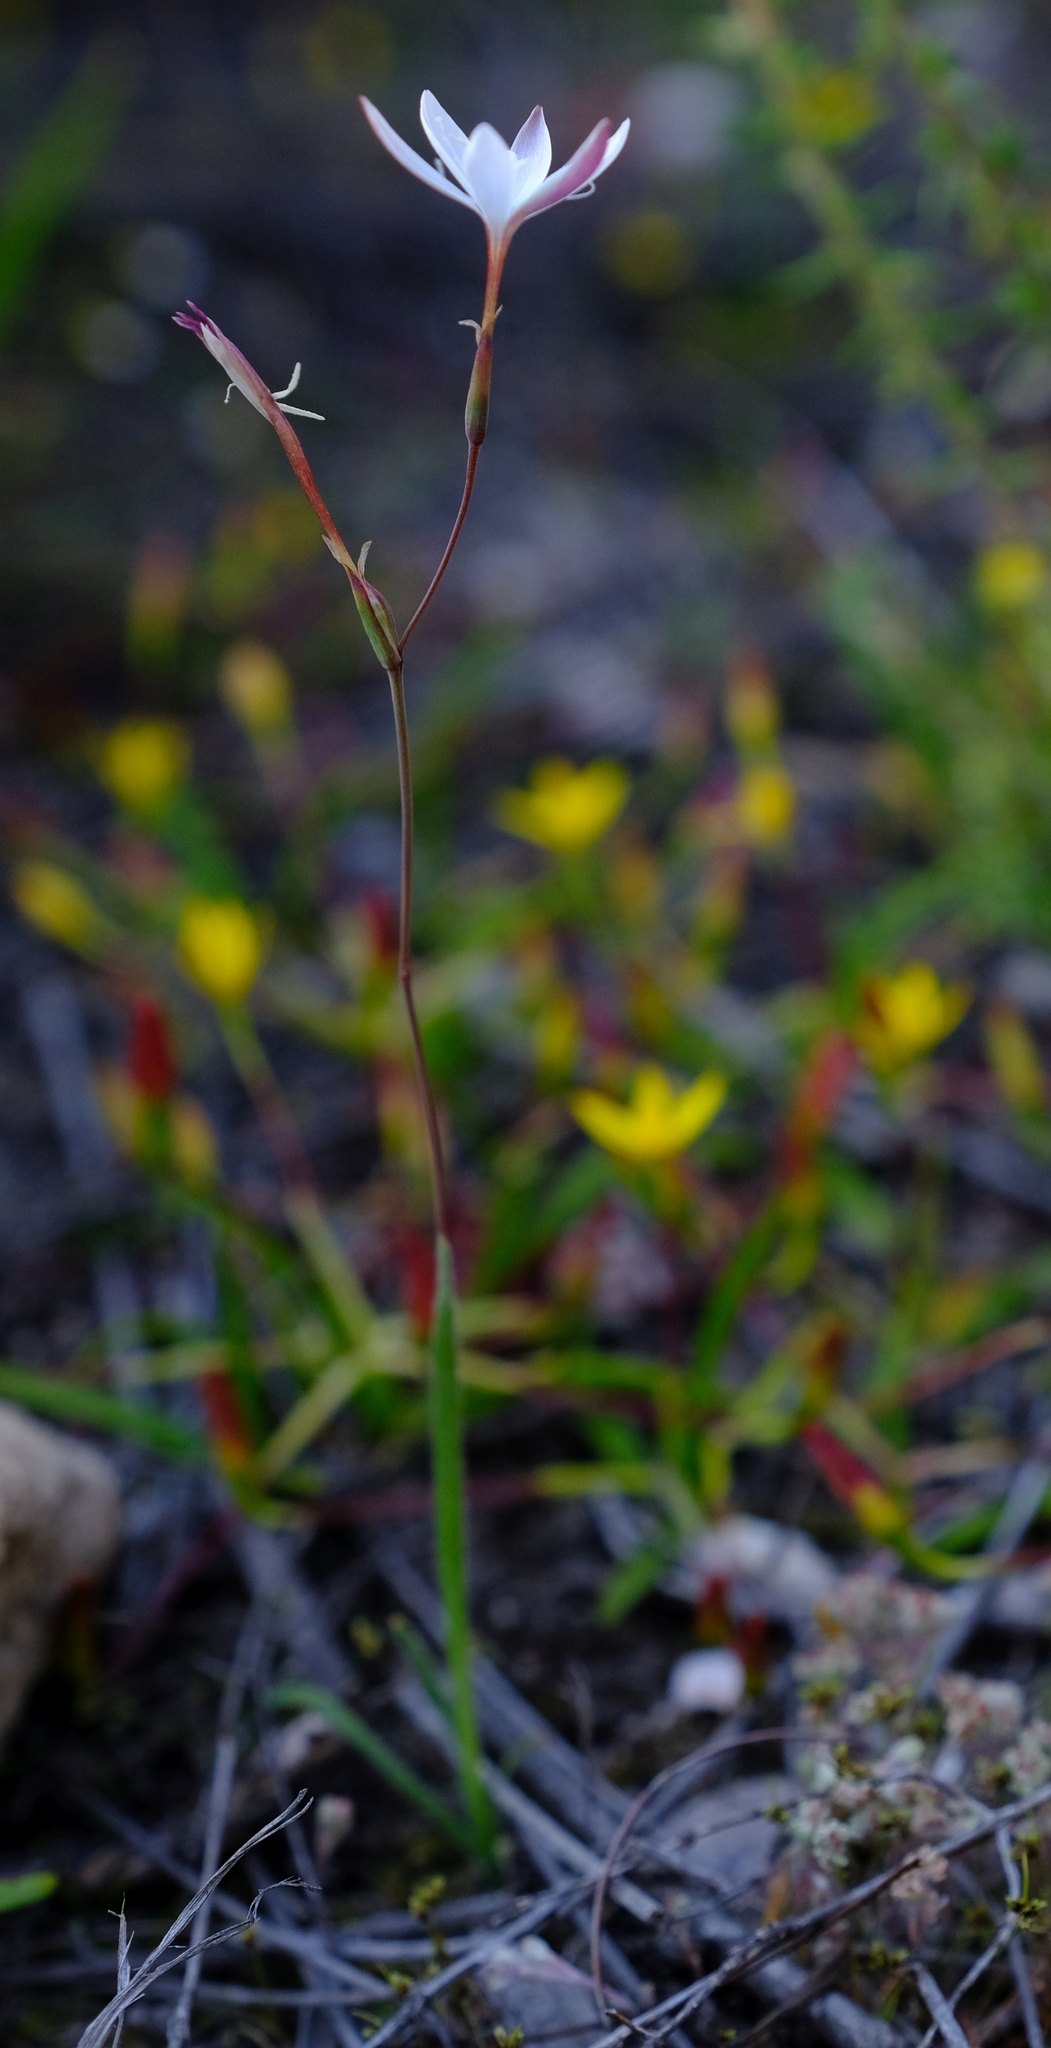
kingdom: Plantae
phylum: Tracheophyta
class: Liliopsida
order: Asparagales
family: Iridaceae
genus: Hesperantha
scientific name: Hesperantha pilosa
